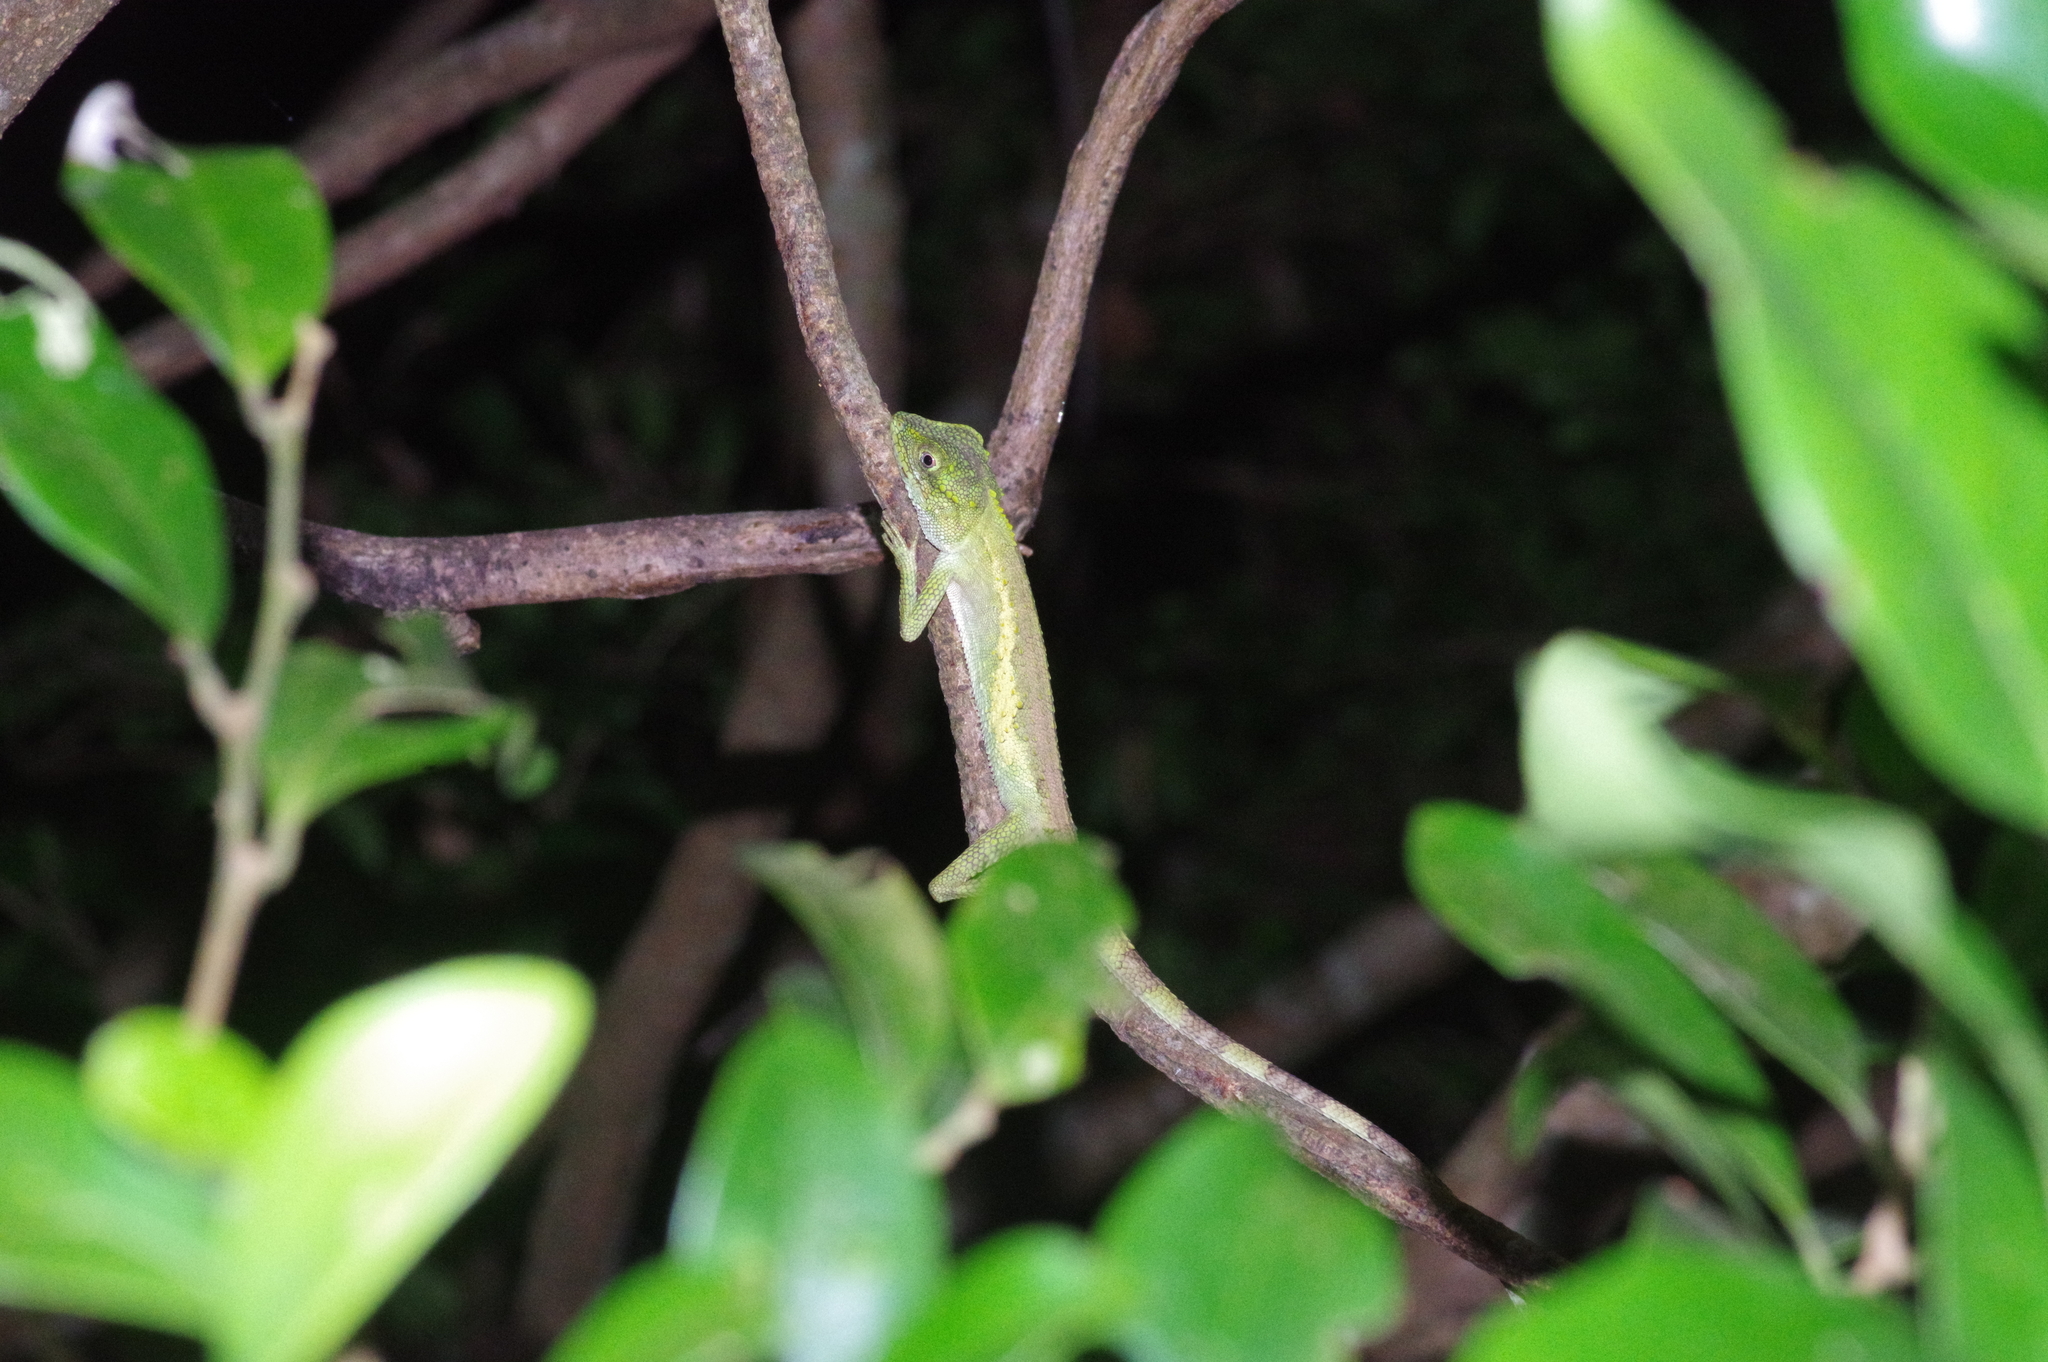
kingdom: Fungi
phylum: Basidiomycota
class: Agaricomycetes
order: Boletales
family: Diplocystidiaceae
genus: Diploderma
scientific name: Diploderma polygonatum
